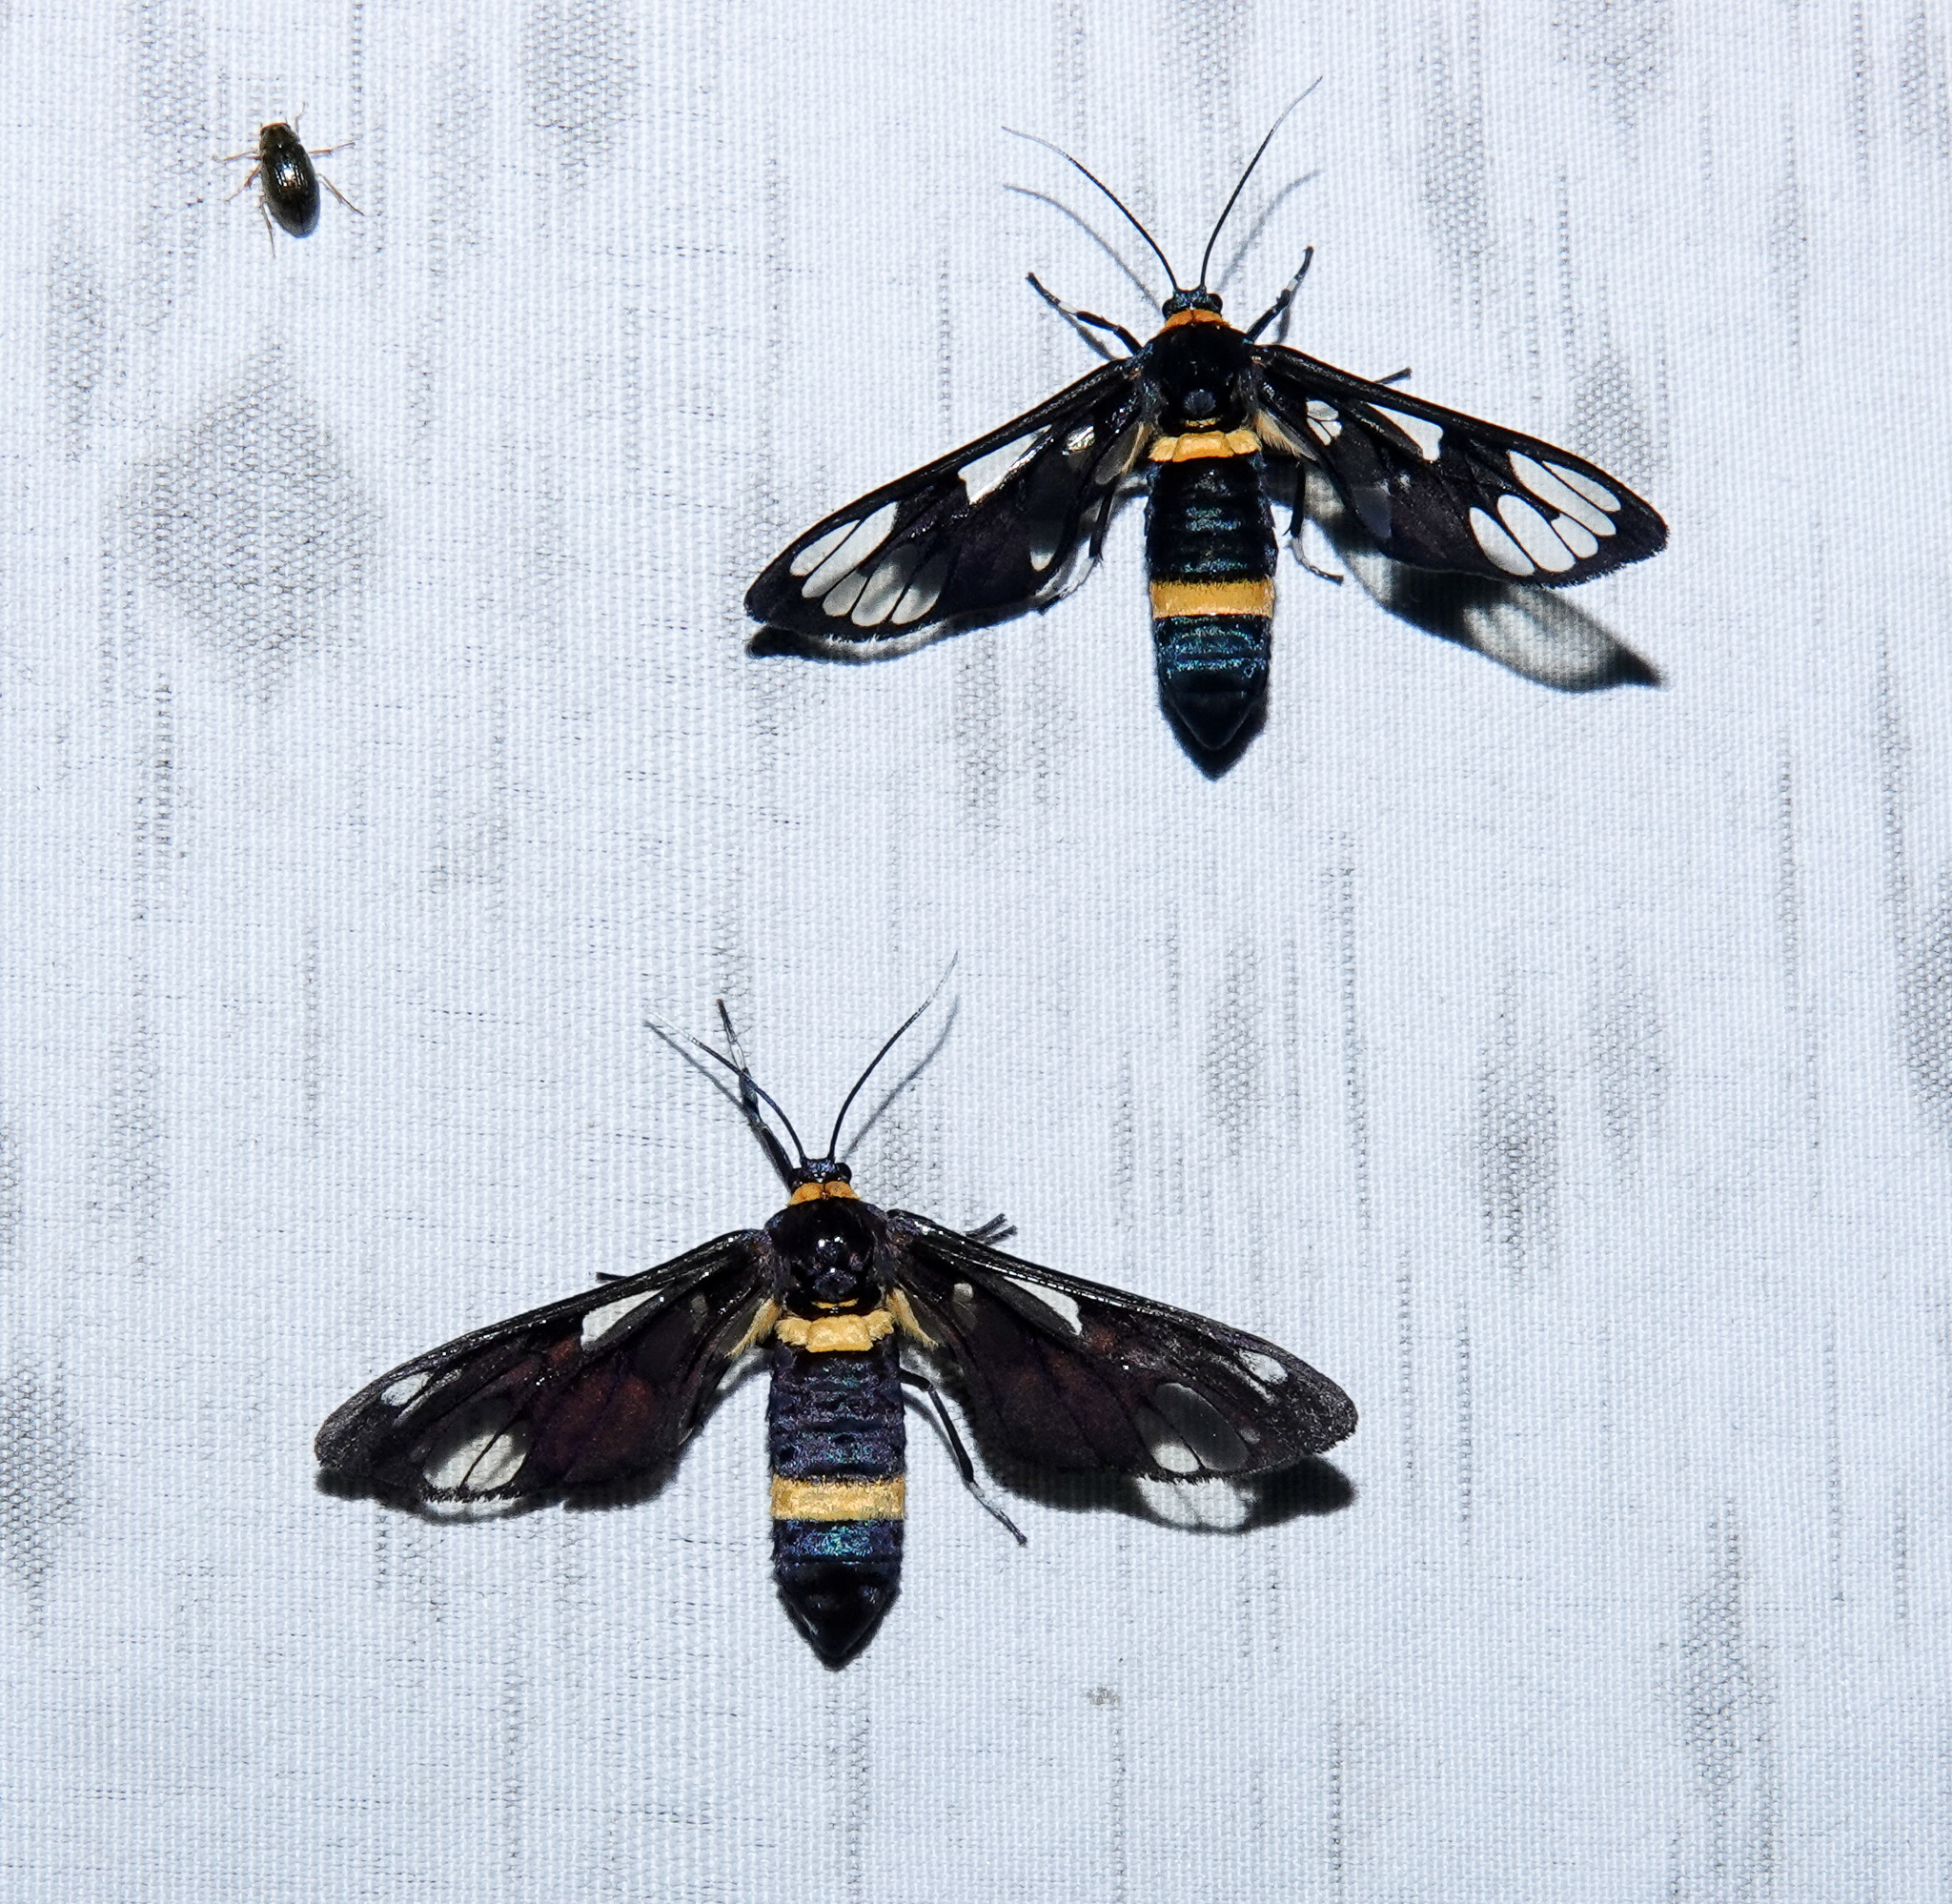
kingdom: Animalia
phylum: Arthropoda
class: Insecta
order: Lepidoptera
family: Erebidae
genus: Syntomoides
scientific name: Syntomoides imaon
